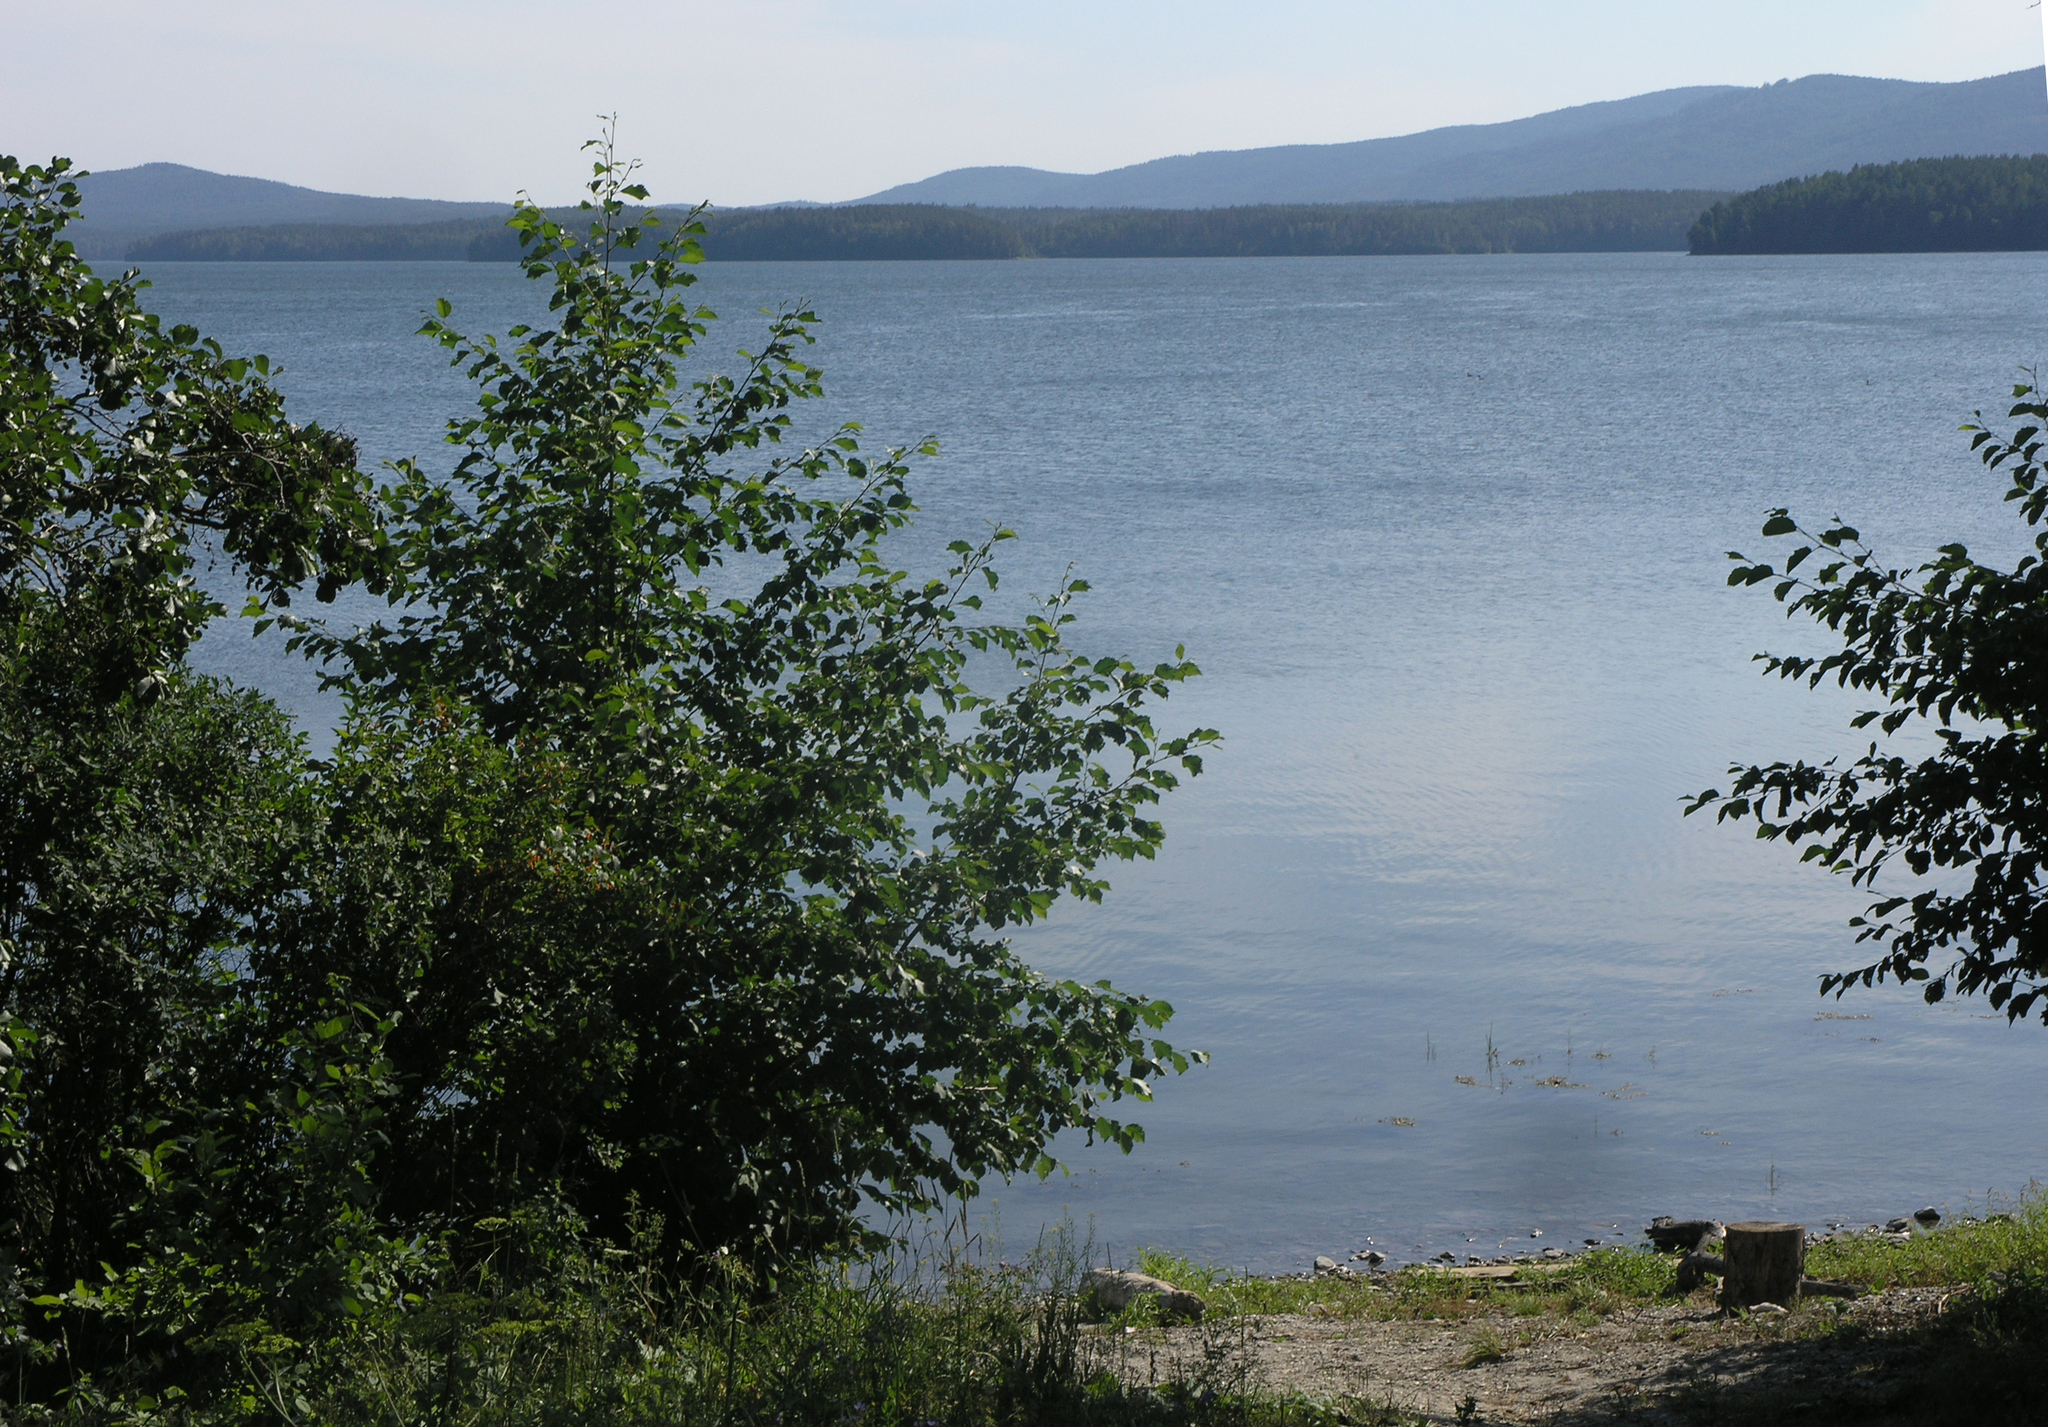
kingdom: Plantae
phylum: Tracheophyta
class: Magnoliopsida
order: Fagales
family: Betulaceae
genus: Alnus
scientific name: Alnus incana
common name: Grey alder
